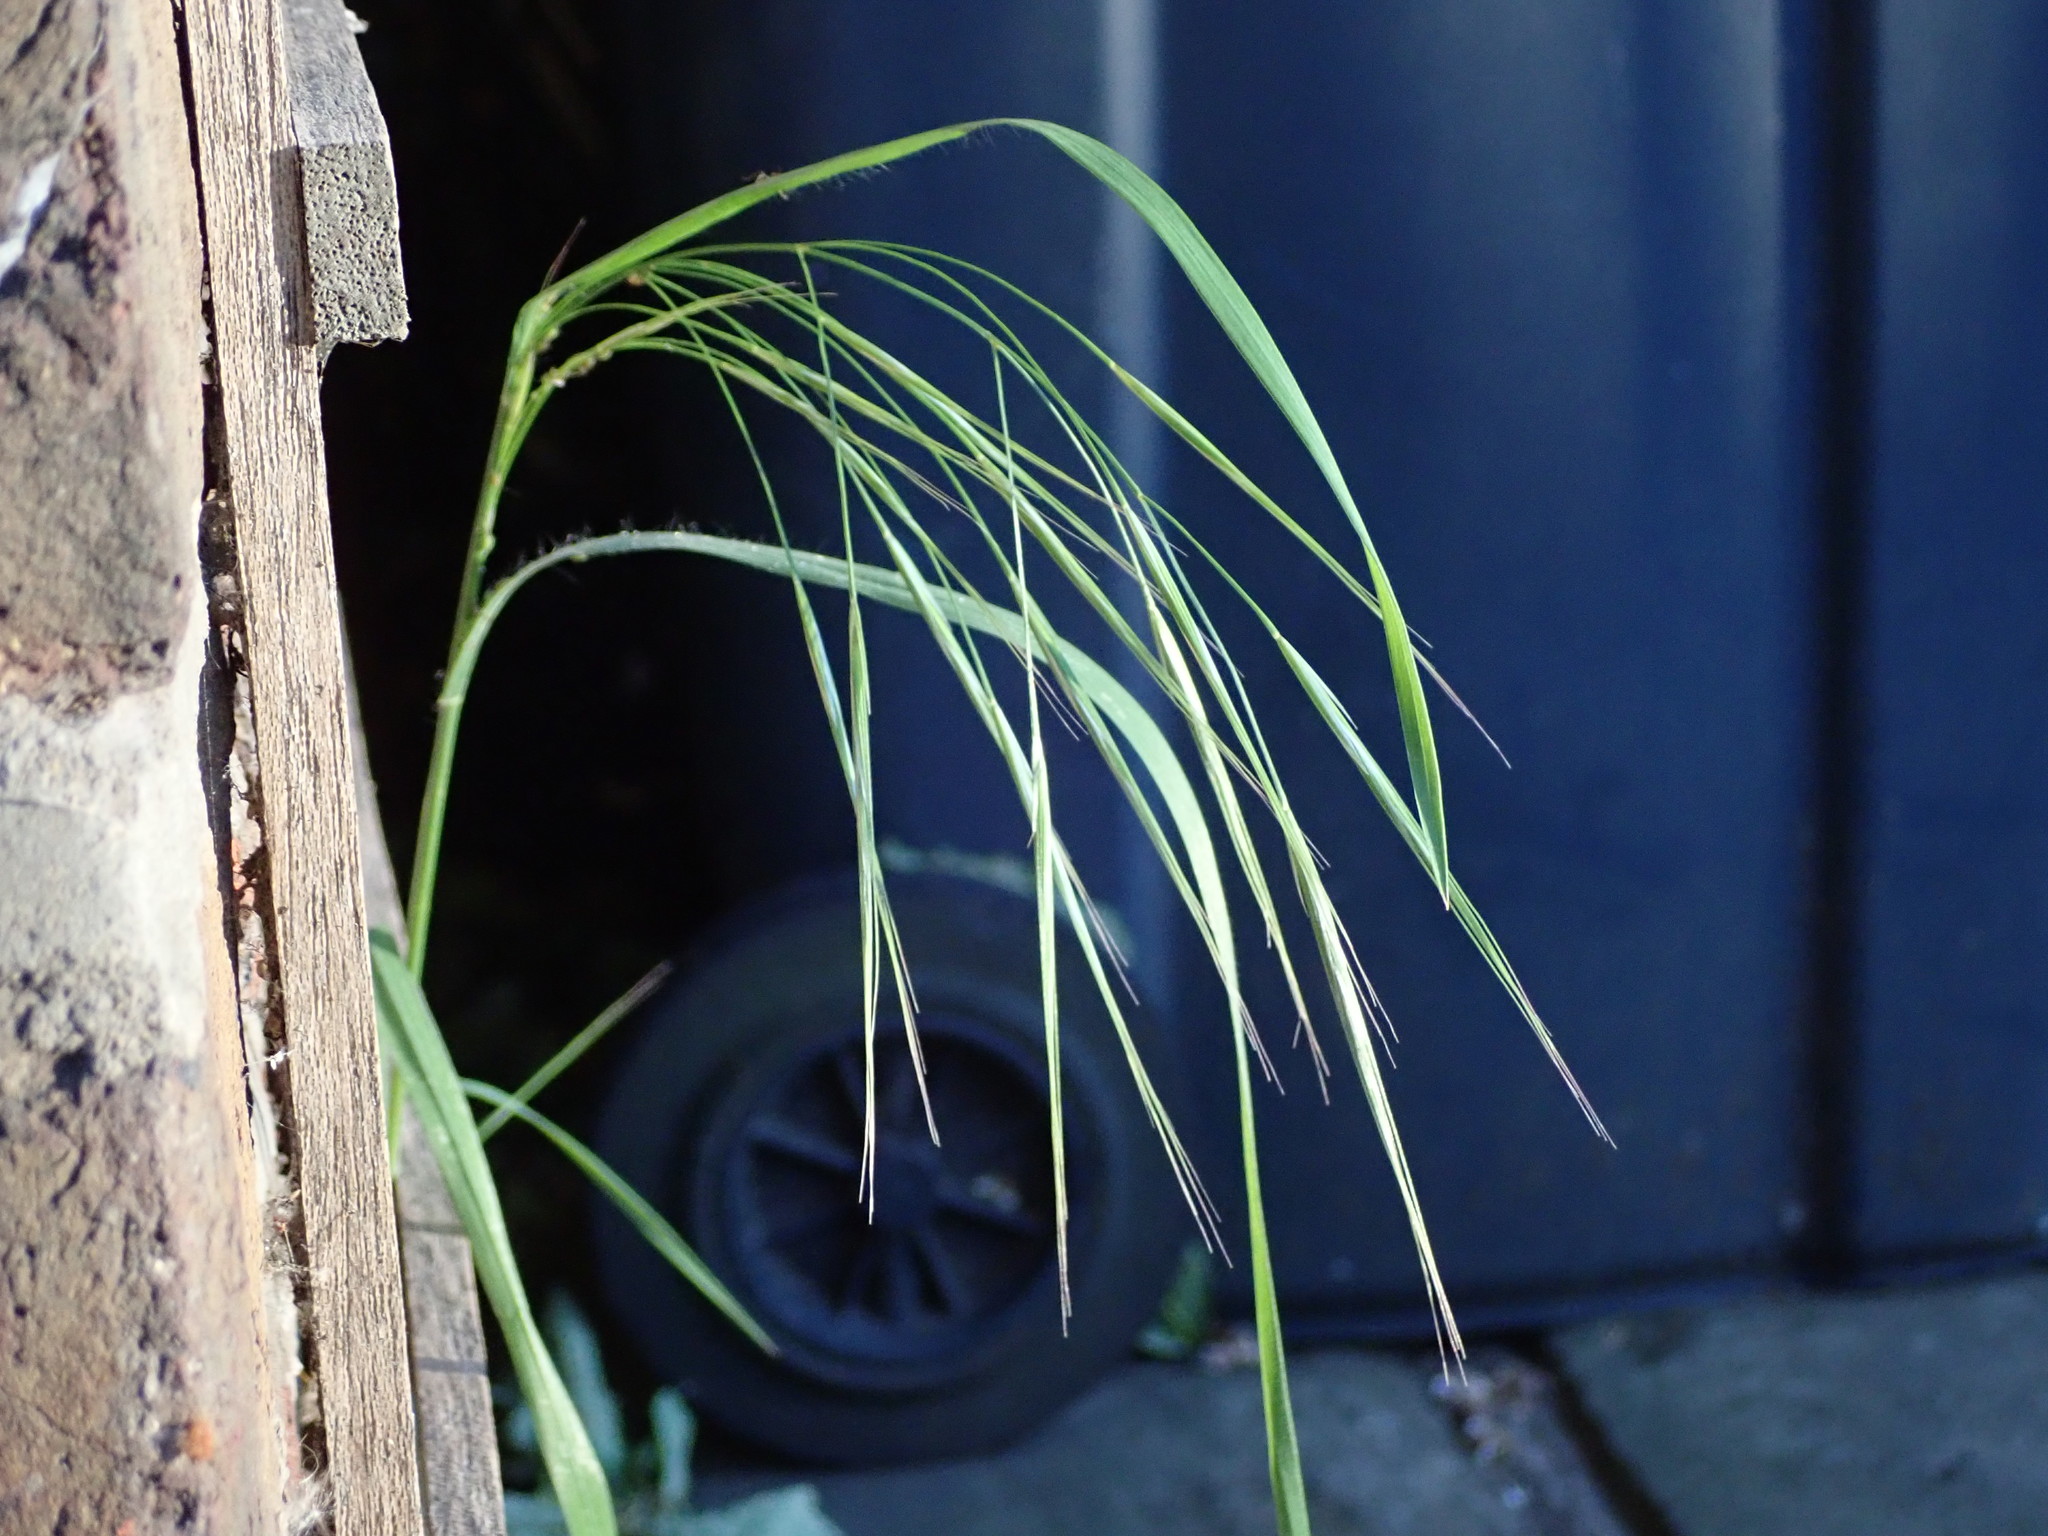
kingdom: Plantae
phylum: Tracheophyta
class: Liliopsida
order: Poales
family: Poaceae
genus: Bromus
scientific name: Bromus sterilis
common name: Poverty brome
